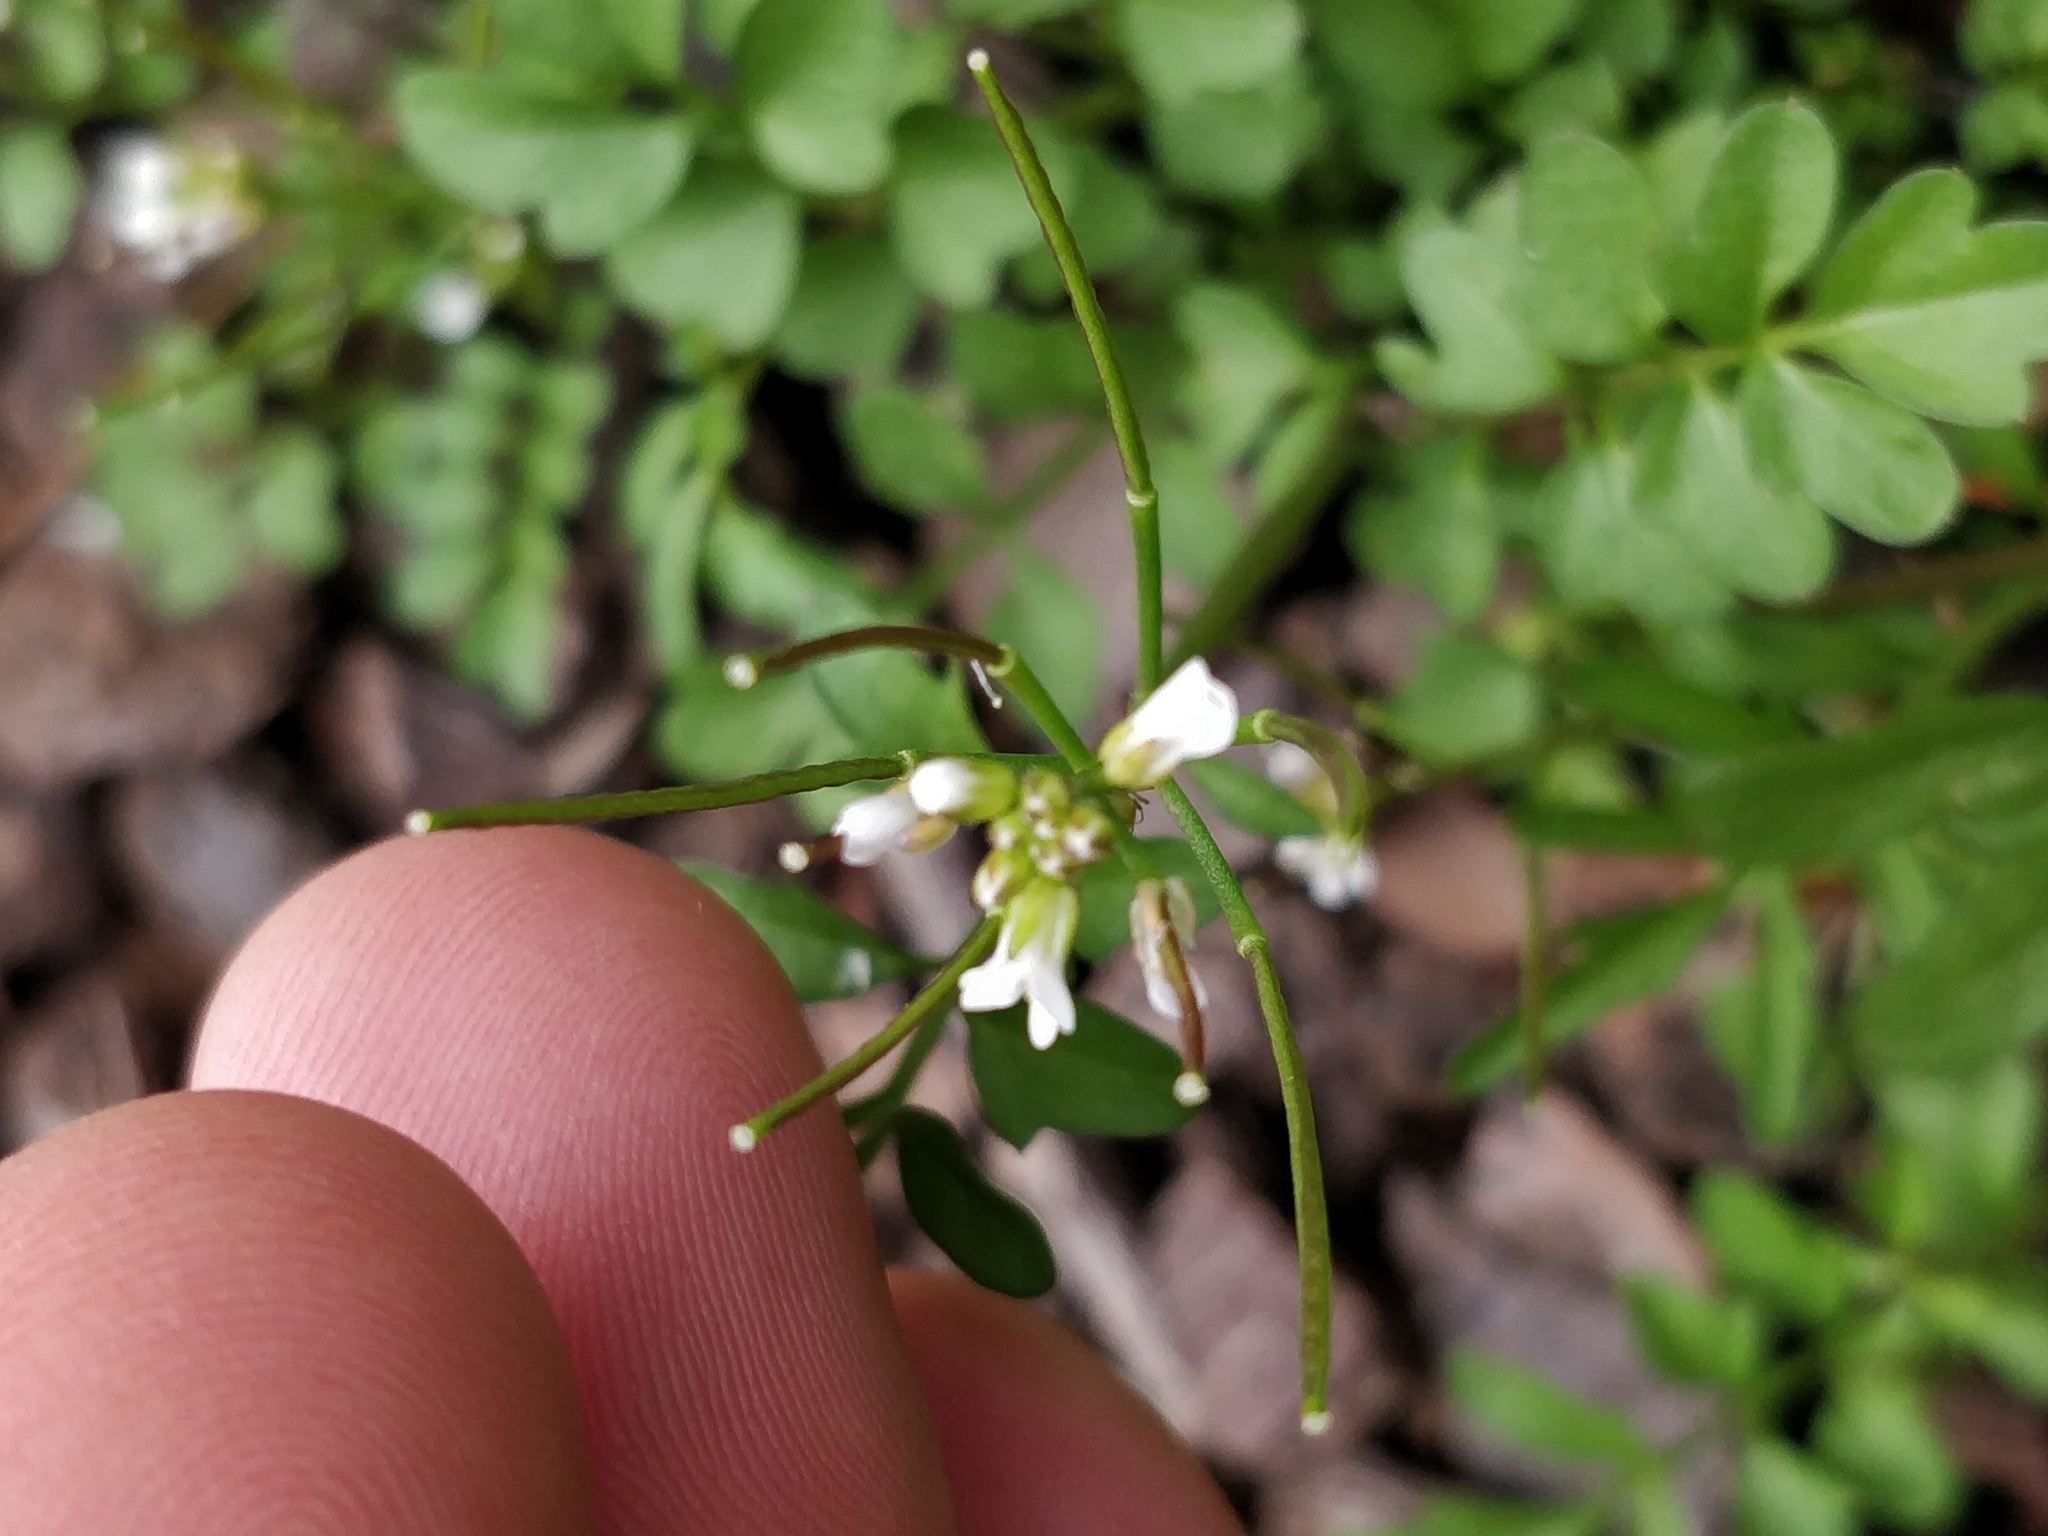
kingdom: Plantae
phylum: Tracheophyta
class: Magnoliopsida
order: Brassicales
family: Brassicaceae
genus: Cardamine
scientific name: Cardamine occulta
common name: Asian wavy bittercress
